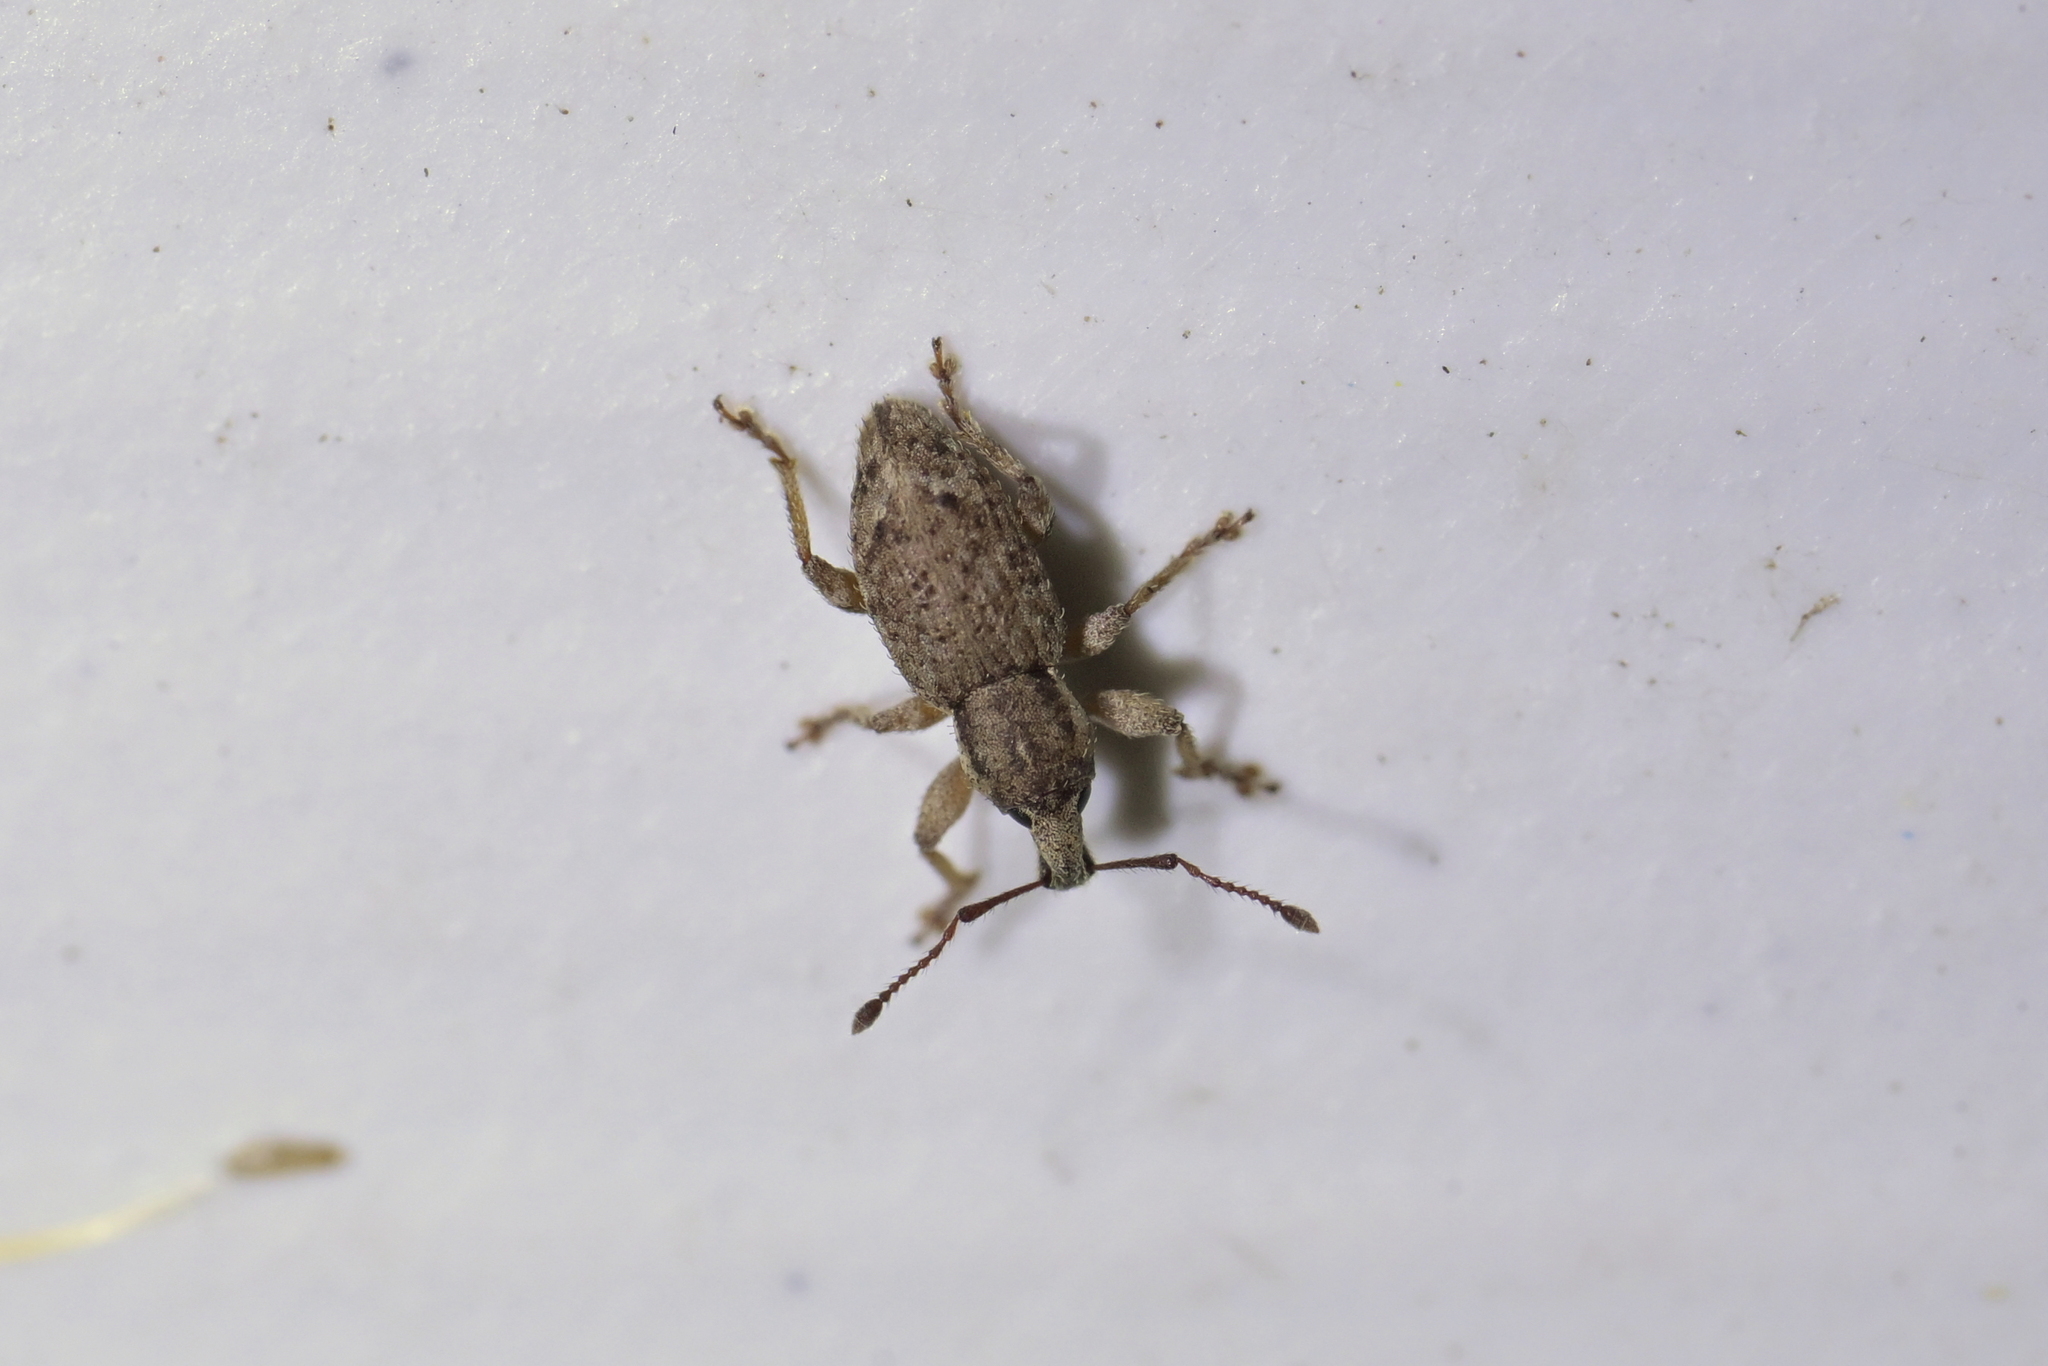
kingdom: Animalia
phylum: Arthropoda
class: Insecta
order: Coleoptera
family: Curculionidae
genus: Chalepistes
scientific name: Chalepistes compressus
